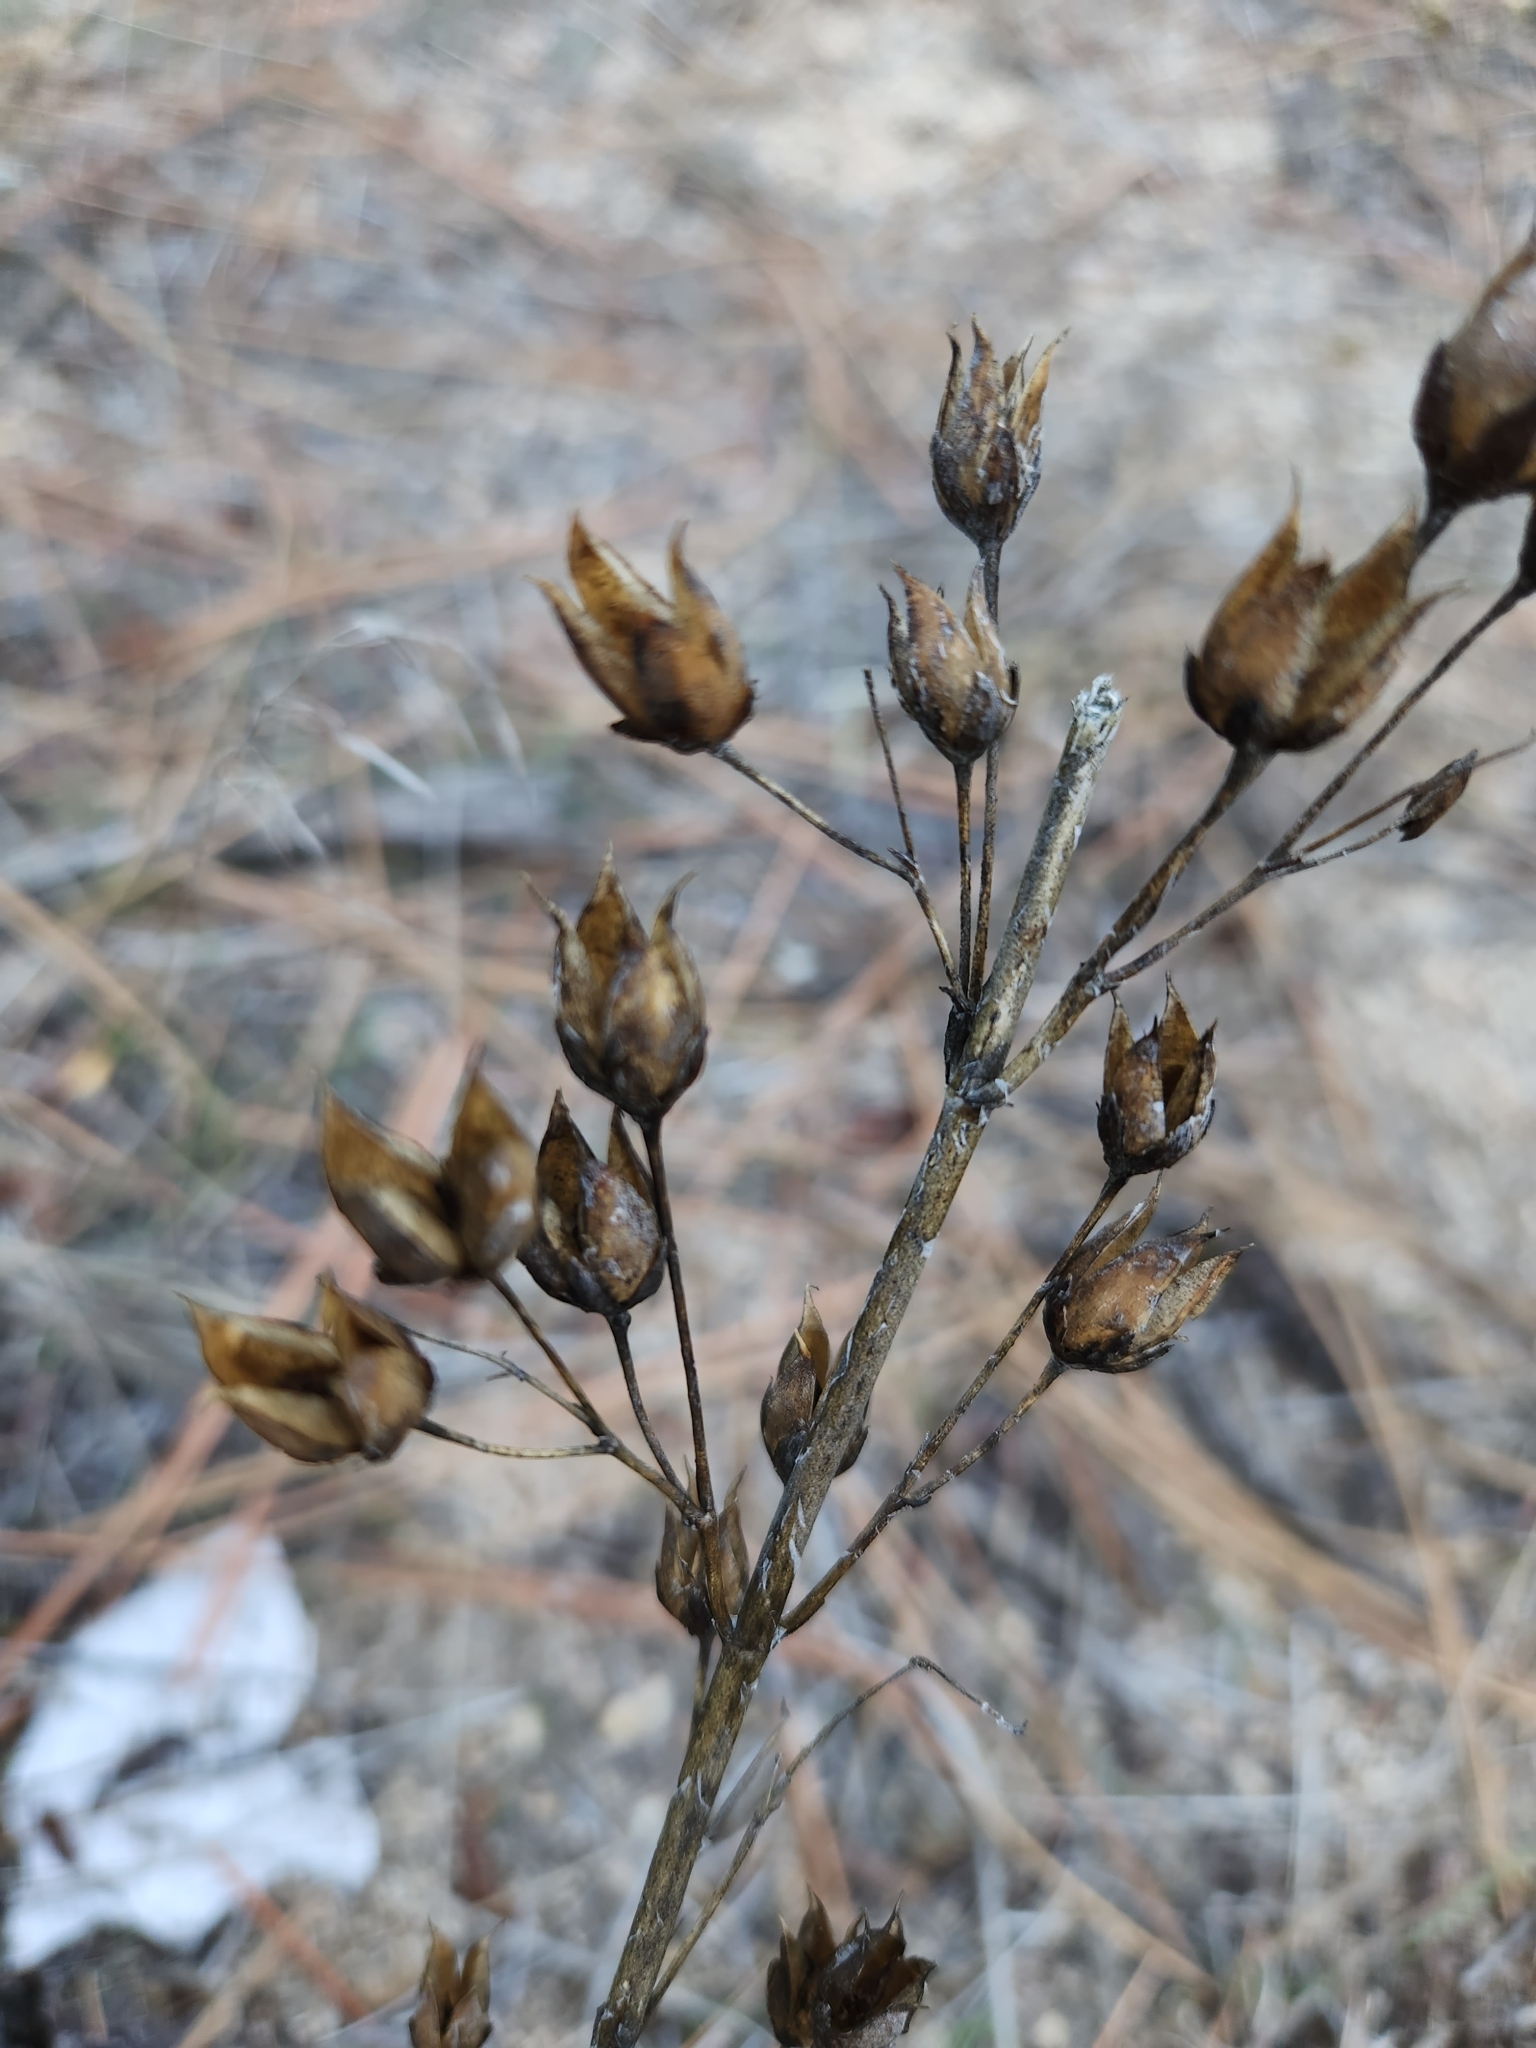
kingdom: Plantae
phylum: Tracheophyta
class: Magnoliopsida
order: Lamiales
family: Plantaginaceae
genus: Penstemon
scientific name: Penstemon centranthifolius
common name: Scarlet bugler
